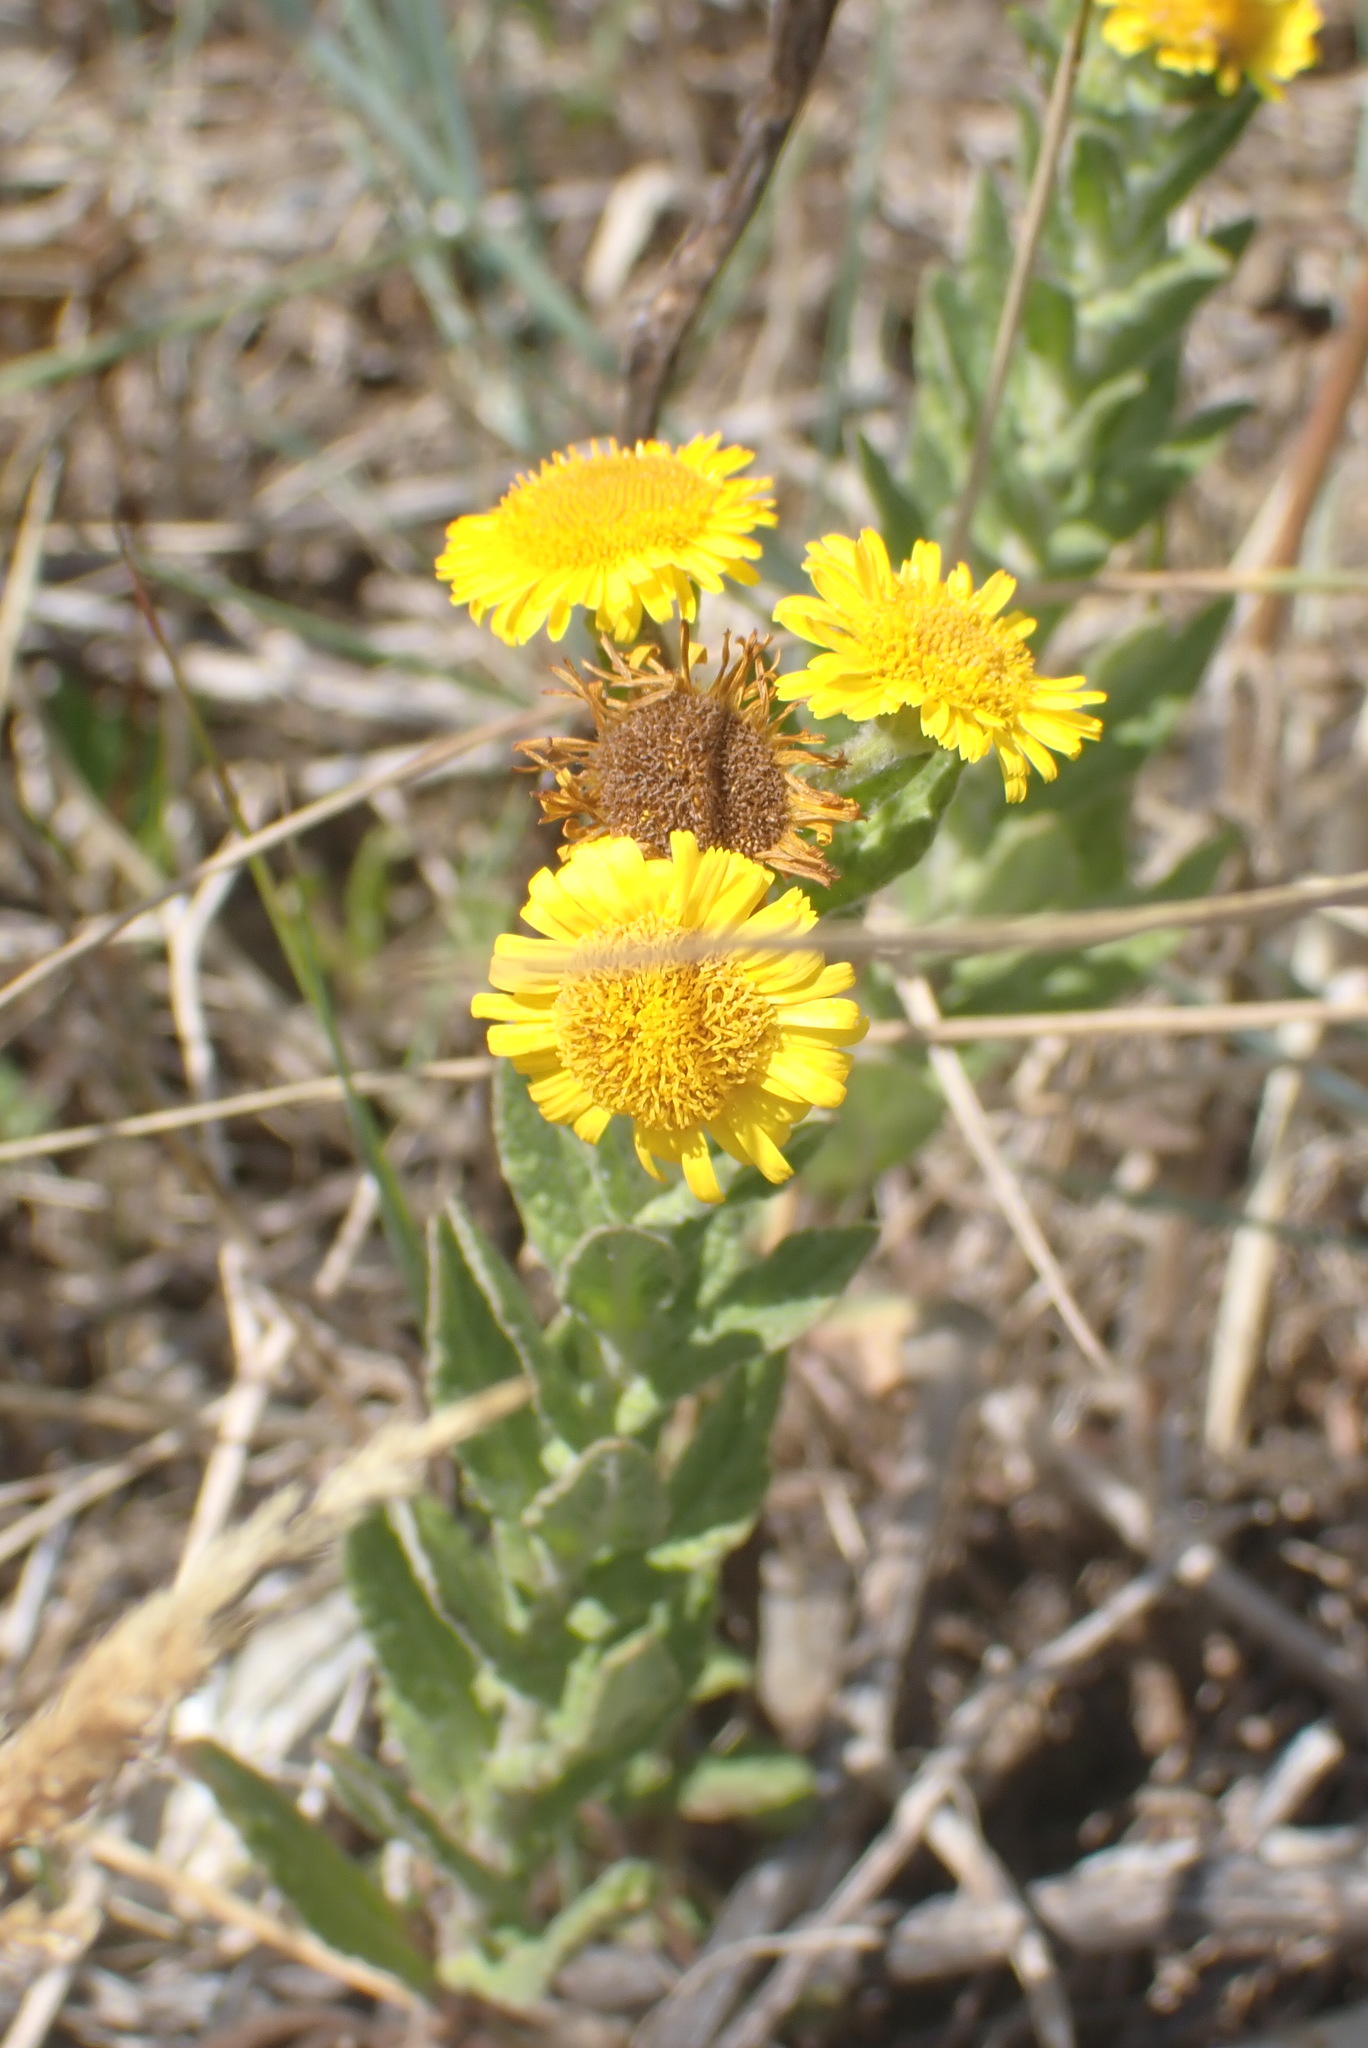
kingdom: Plantae
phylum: Tracheophyta
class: Magnoliopsida
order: Asterales
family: Asteraceae
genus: Pulicaria
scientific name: Pulicaria dysenterica
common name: Common fleabane
